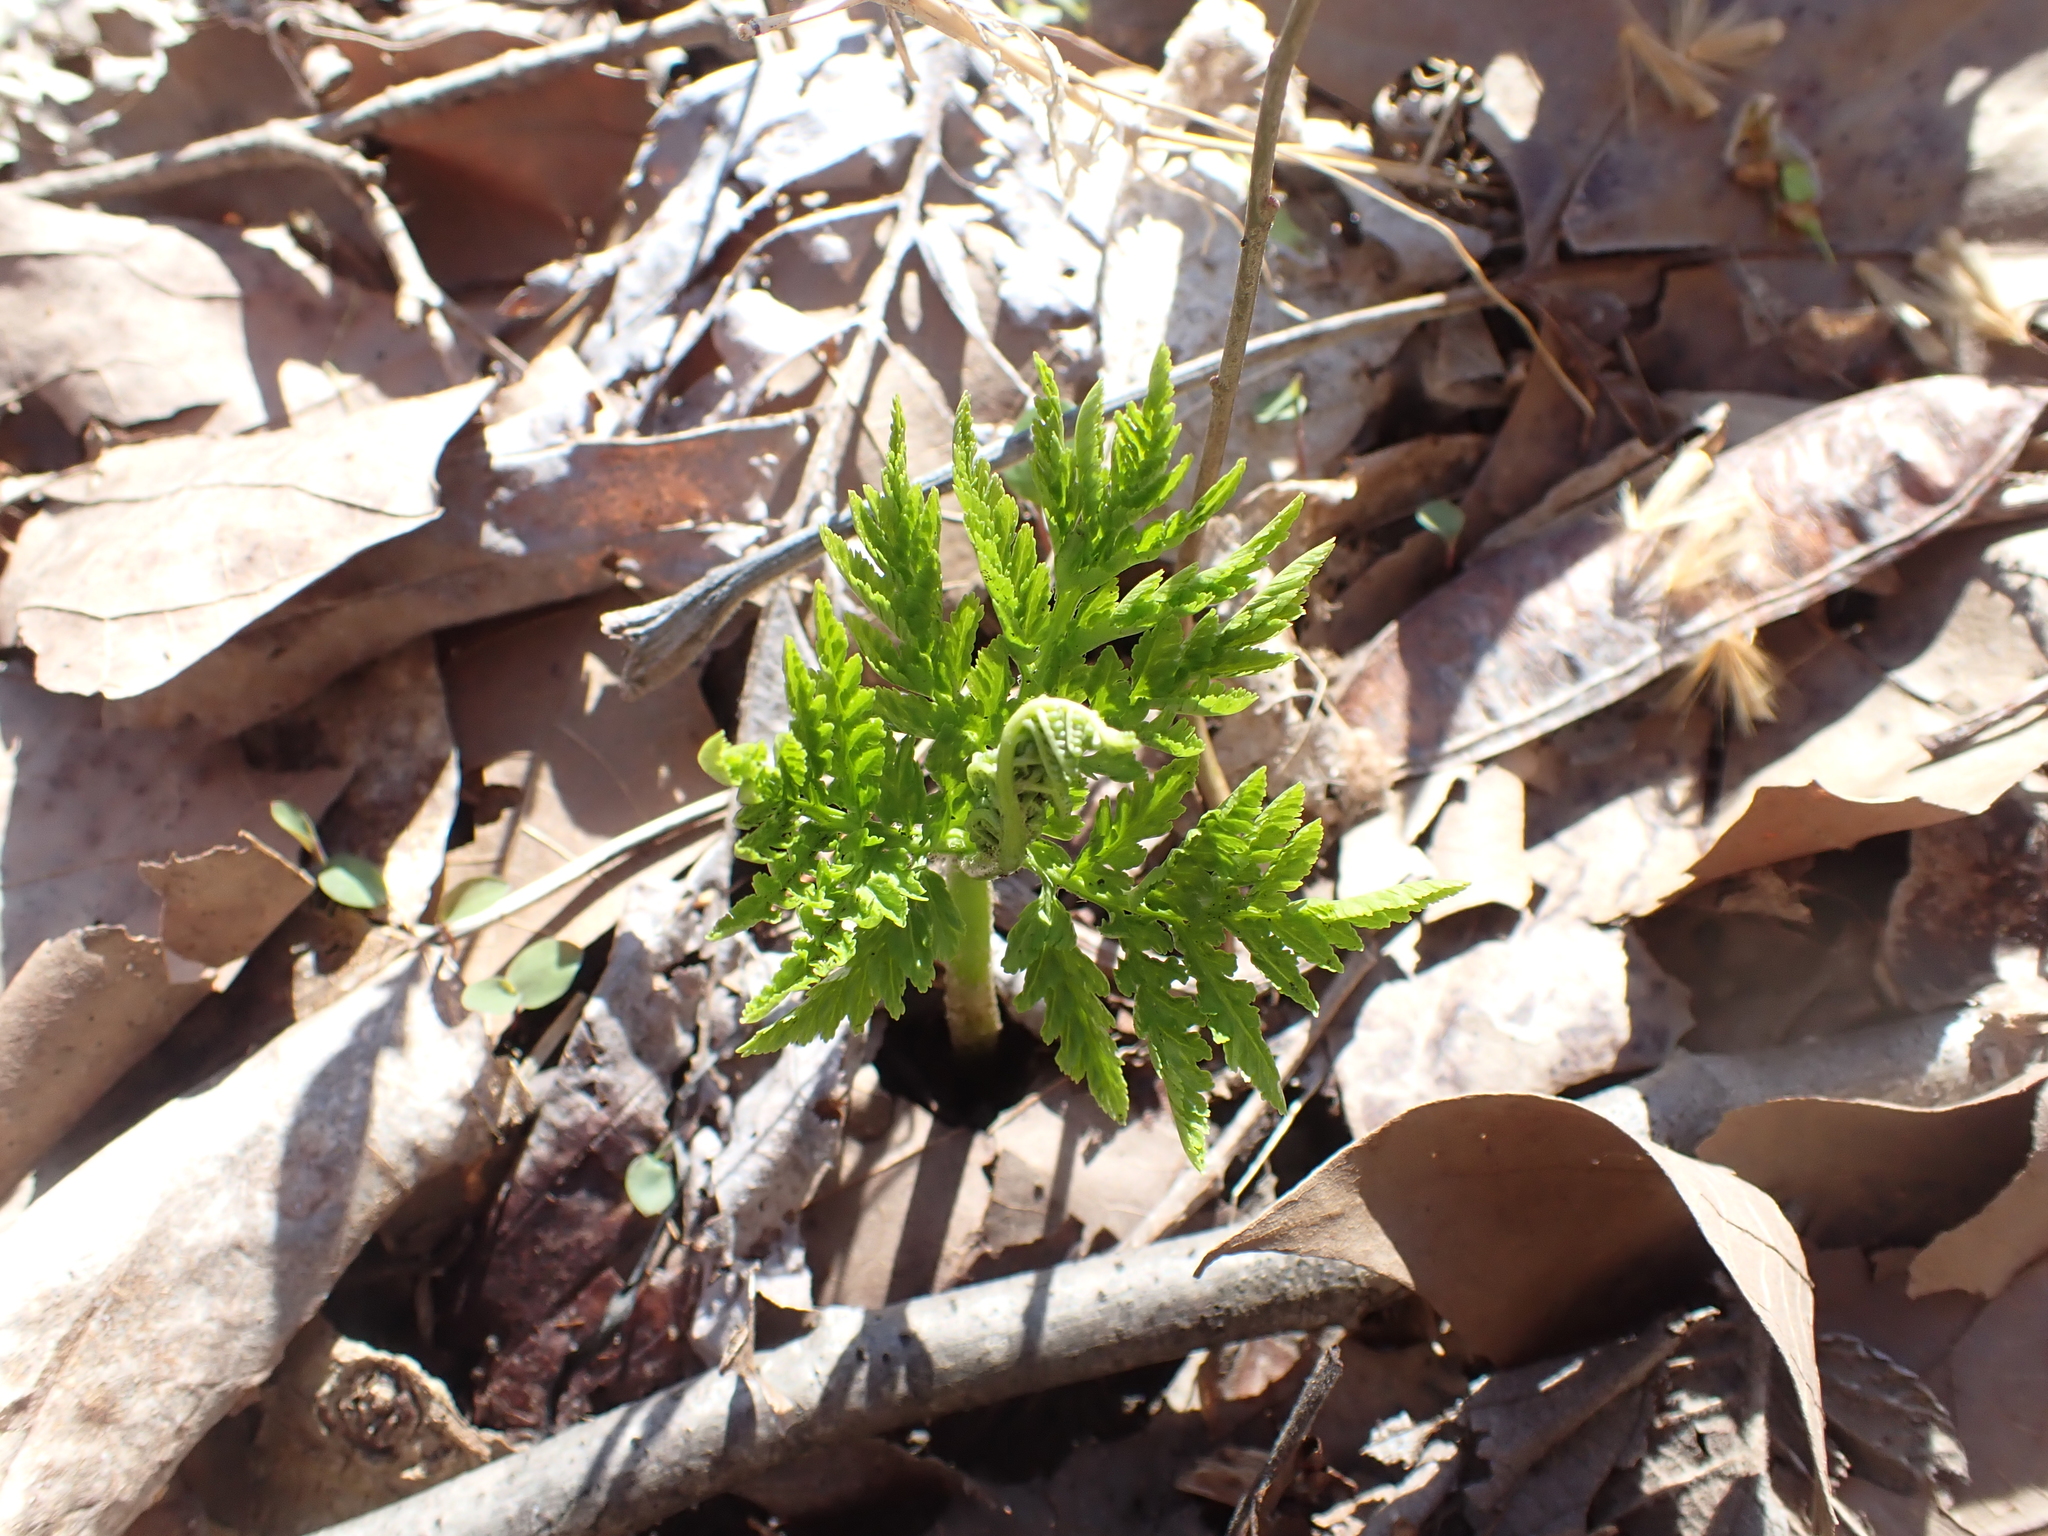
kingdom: Plantae
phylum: Tracheophyta
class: Polypodiopsida
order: Ophioglossales
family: Ophioglossaceae
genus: Botrypus
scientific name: Botrypus virginianus
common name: Common grapefern
